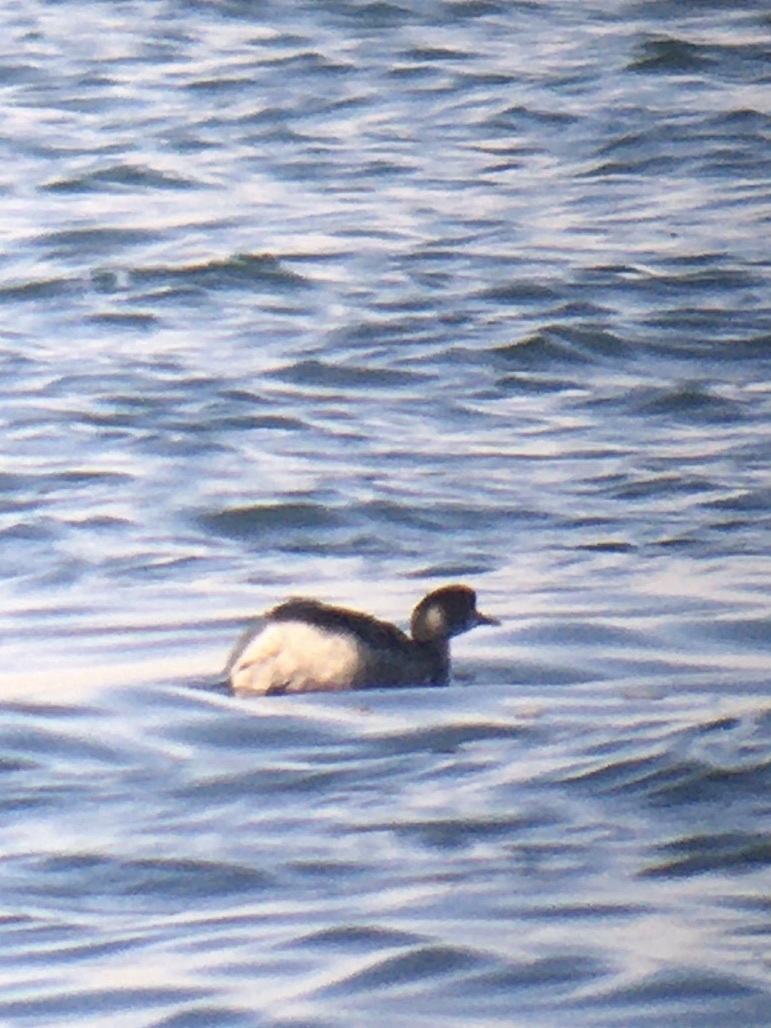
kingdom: Animalia
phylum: Chordata
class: Aves
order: Podicipediformes
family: Podicipedidae
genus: Podiceps
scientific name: Podiceps nigricollis
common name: Black-necked grebe
